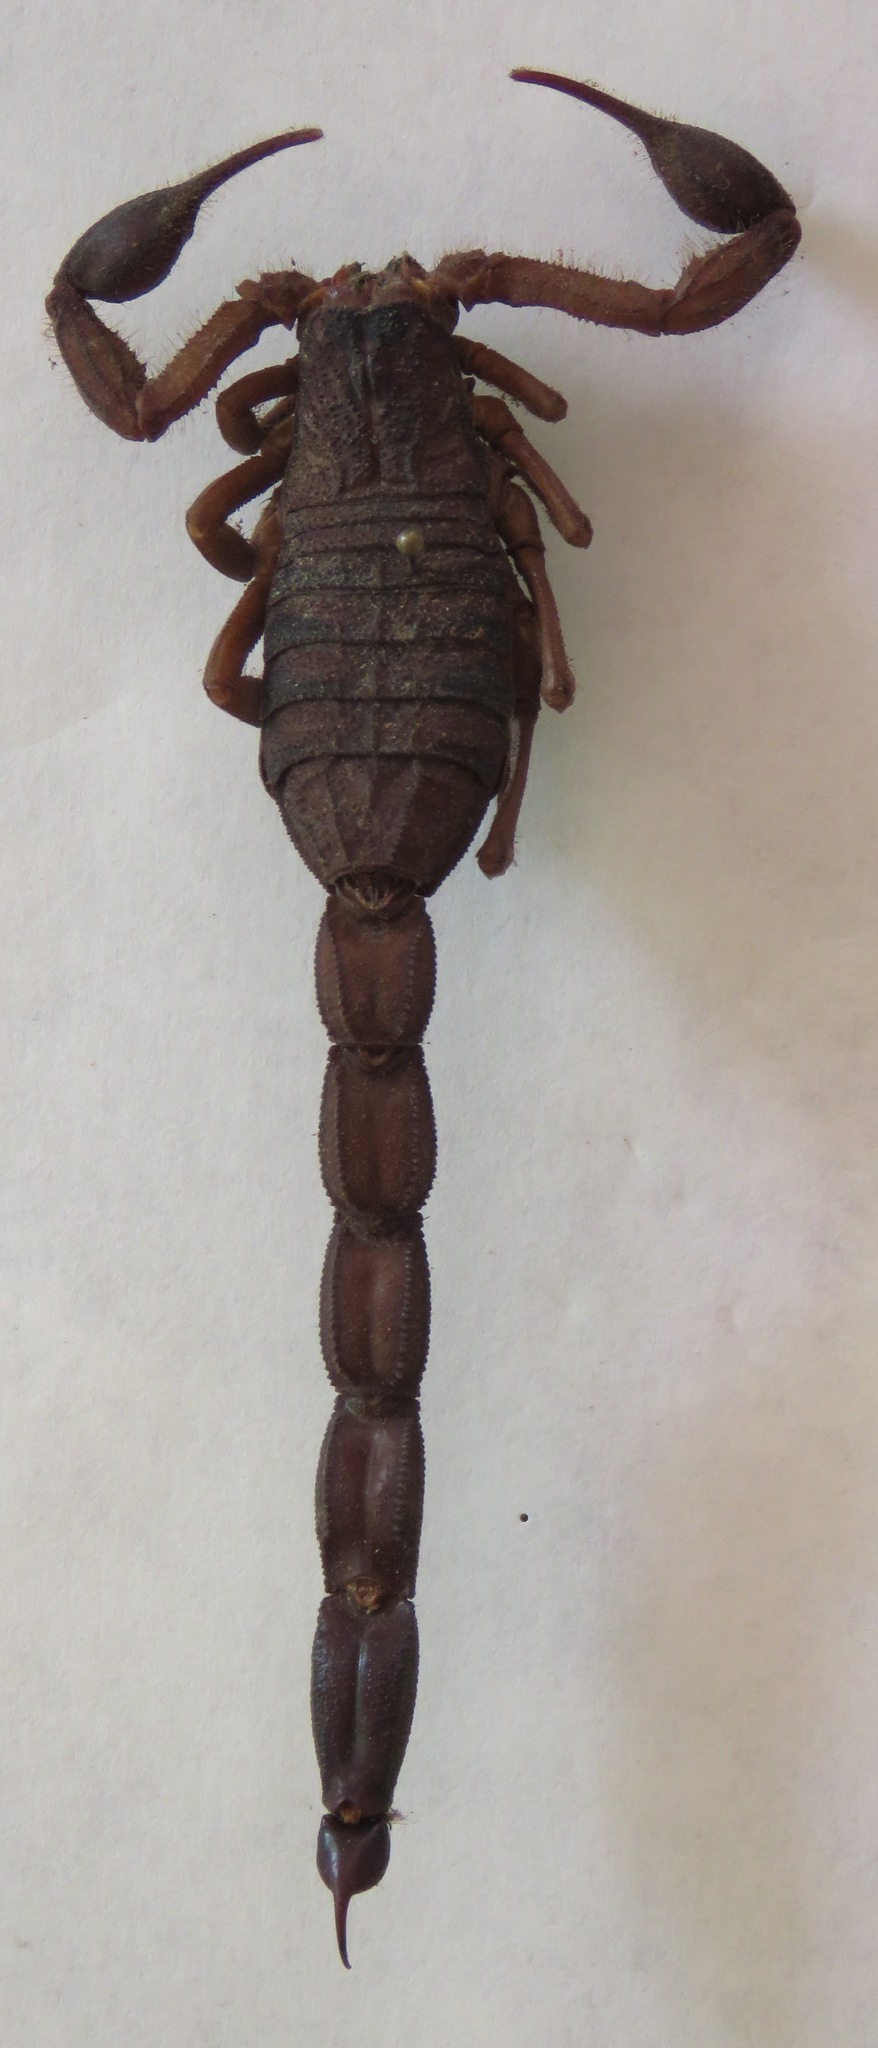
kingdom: Animalia
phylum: Arthropoda
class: Arachnida
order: Scorpiones
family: Buthidae
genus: Centruroides
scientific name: Centruroides edwardsii
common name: Scorpions
